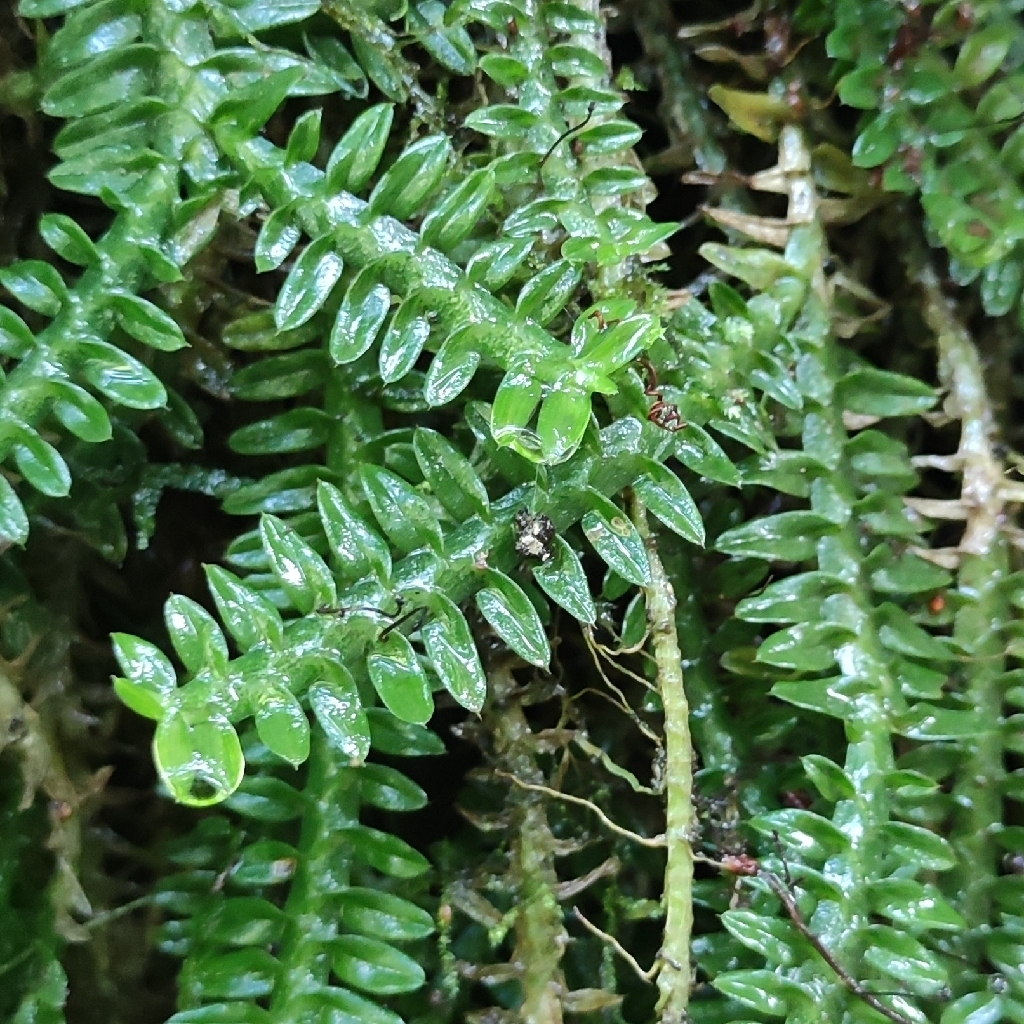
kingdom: Plantae
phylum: Tracheophyta
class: Liliopsida
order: Asparagales
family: Orchidaceae
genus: Dichaea
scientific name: Dichaea neglecta
